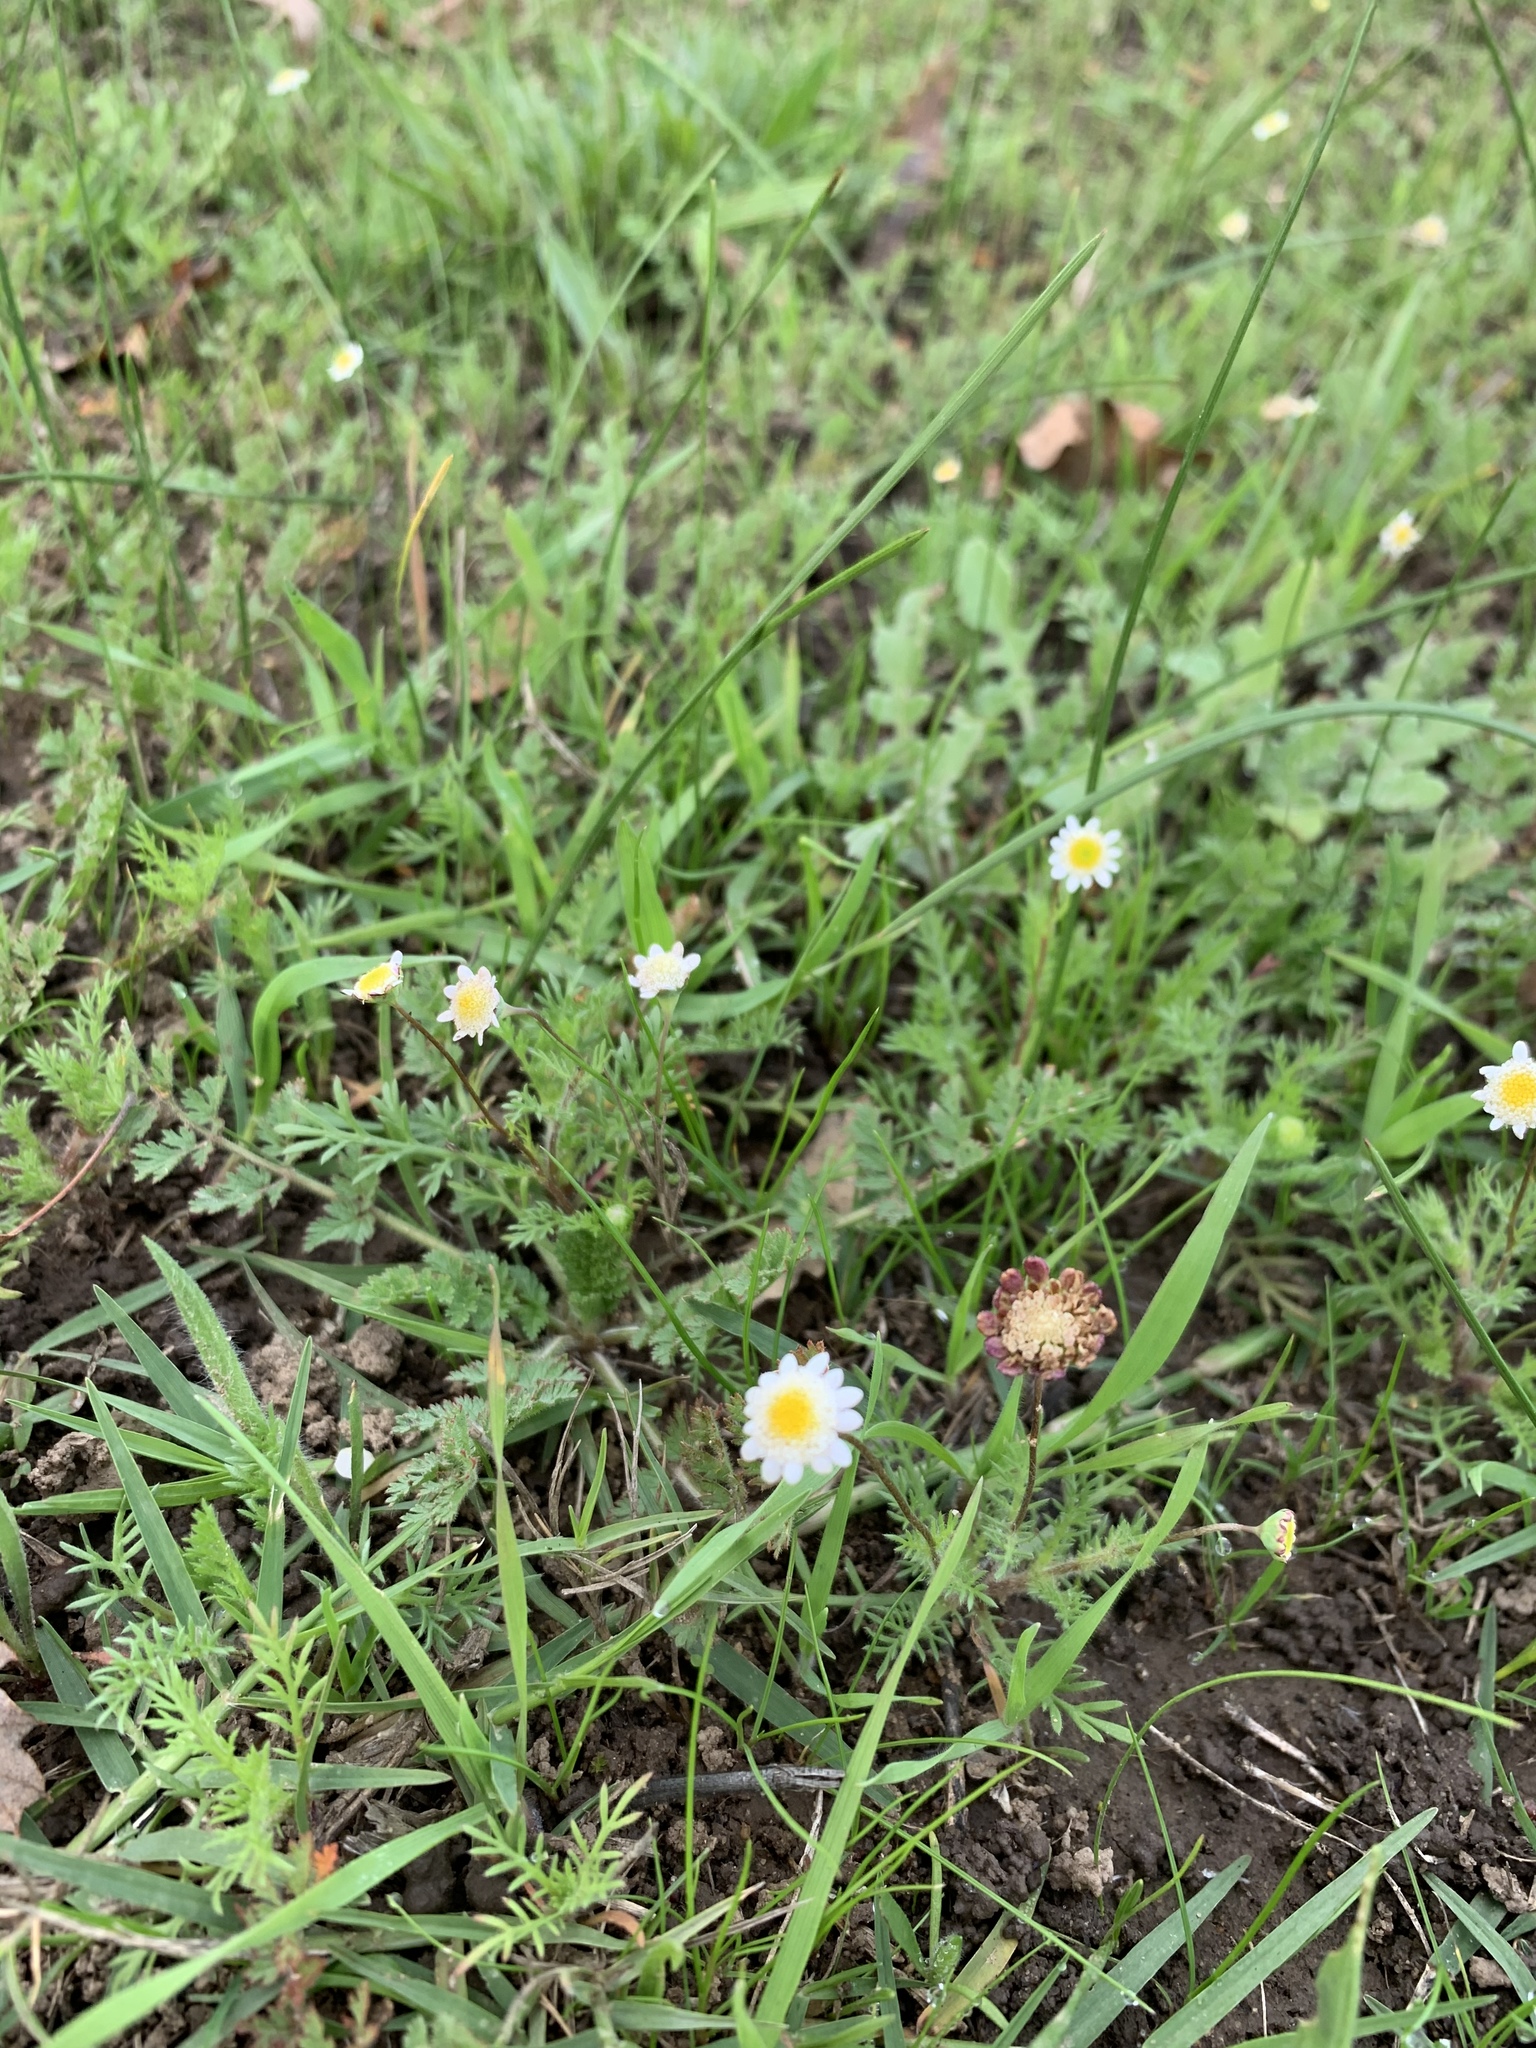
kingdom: Plantae
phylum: Tracheophyta
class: Magnoliopsida
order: Asterales
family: Asteraceae
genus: Cotula
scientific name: Cotula turbinata
